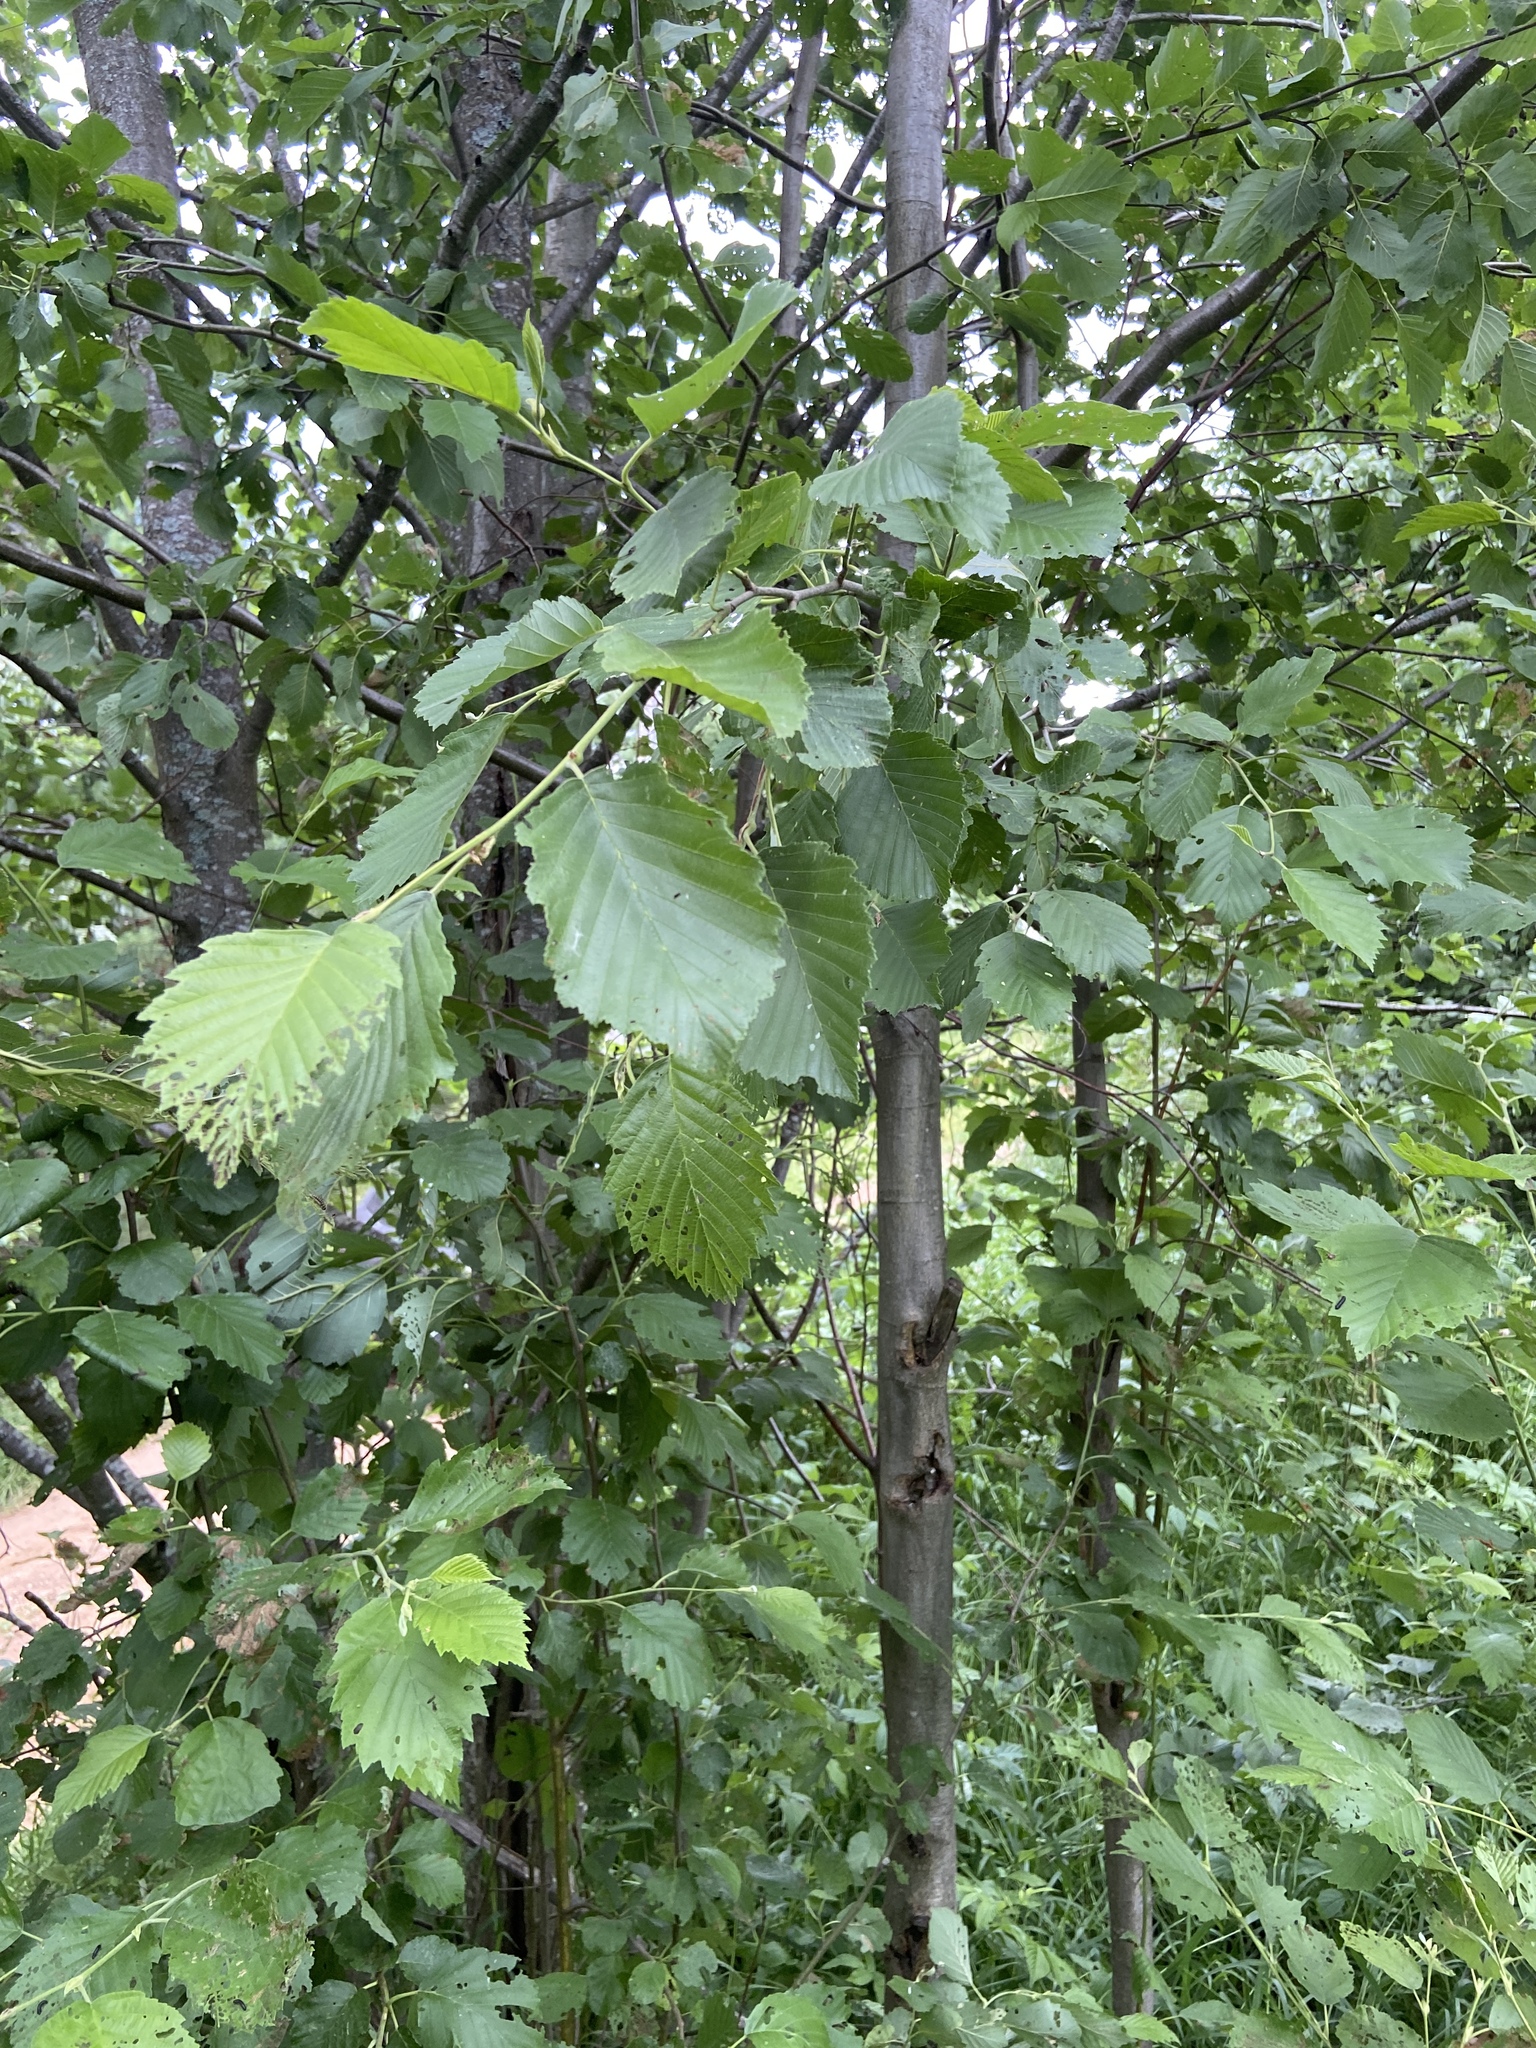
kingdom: Plantae
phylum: Tracheophyta
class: Magnoliopsida
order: Fagales
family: Betulaceae
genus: Alnus
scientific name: Alnus incana
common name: Grey alder
